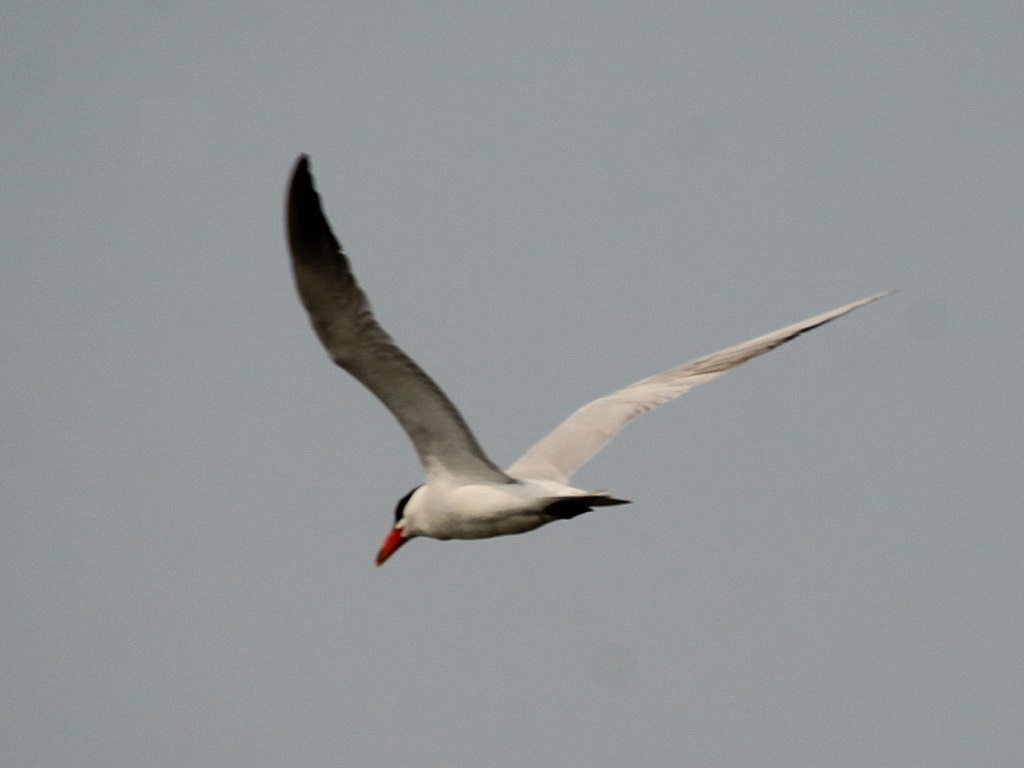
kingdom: Animalia
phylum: Chordata
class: Aves
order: Charadriiformes
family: Laridae
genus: Hydroprogne
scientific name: Hydroprogne caspia
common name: Caspian tern
